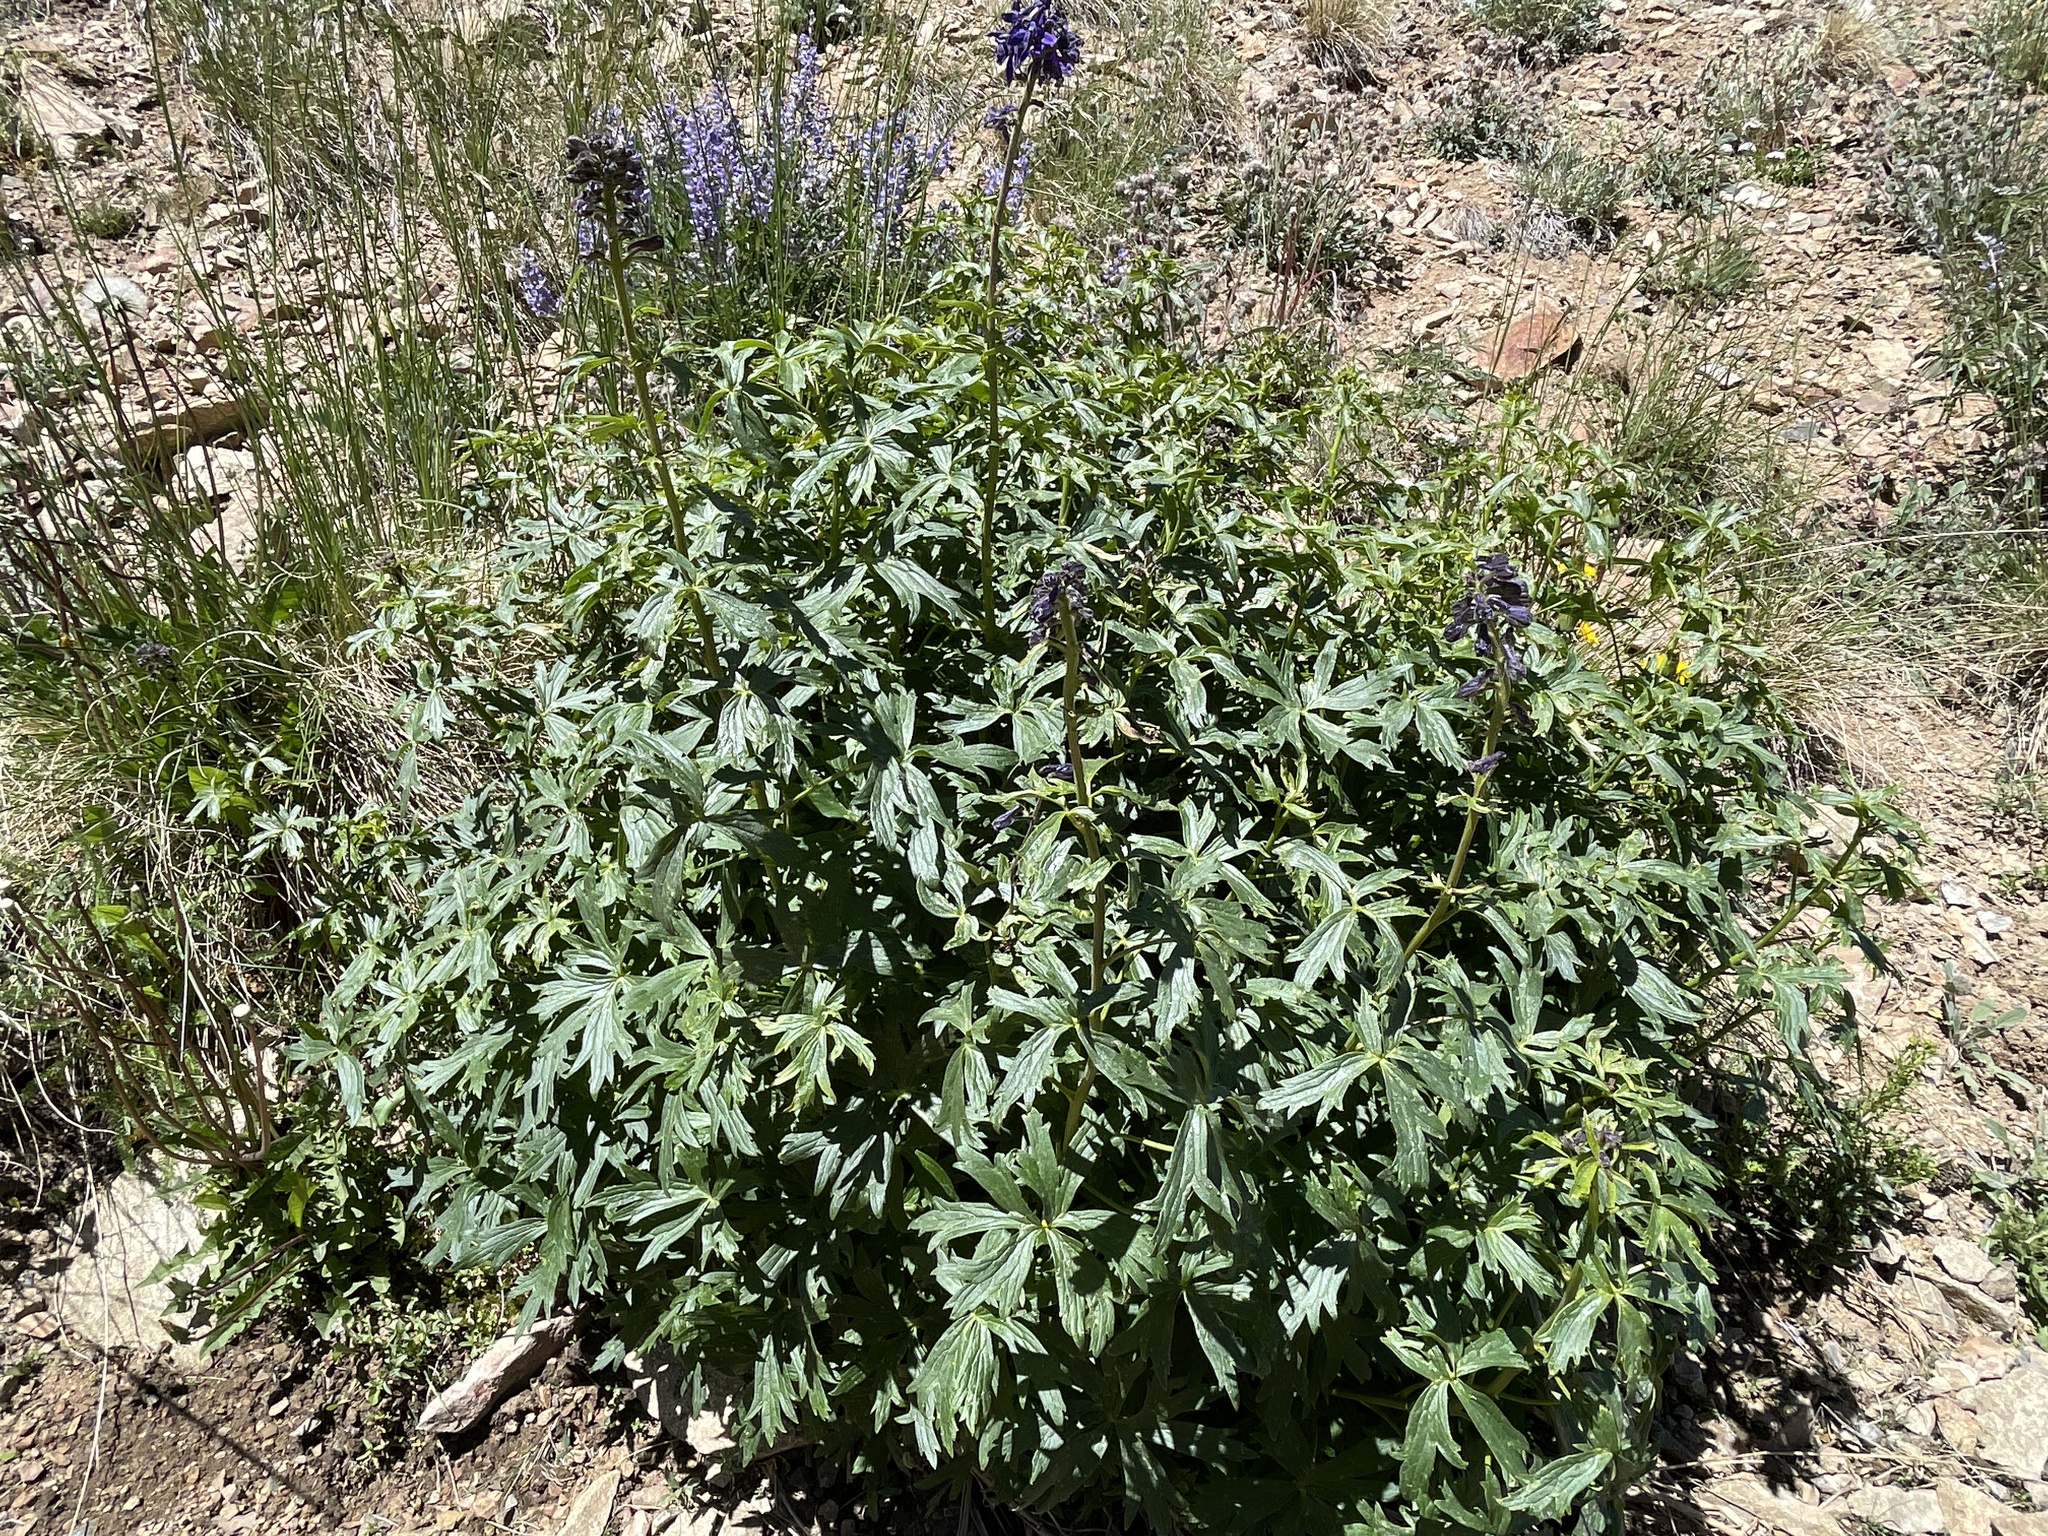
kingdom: Plantae
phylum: Tracheophyta
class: Magnoliopsida
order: Ranunculales
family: Ranunculaceae
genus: Delphinium
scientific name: Delphinium barbeyi
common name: Subalpine larkspur
